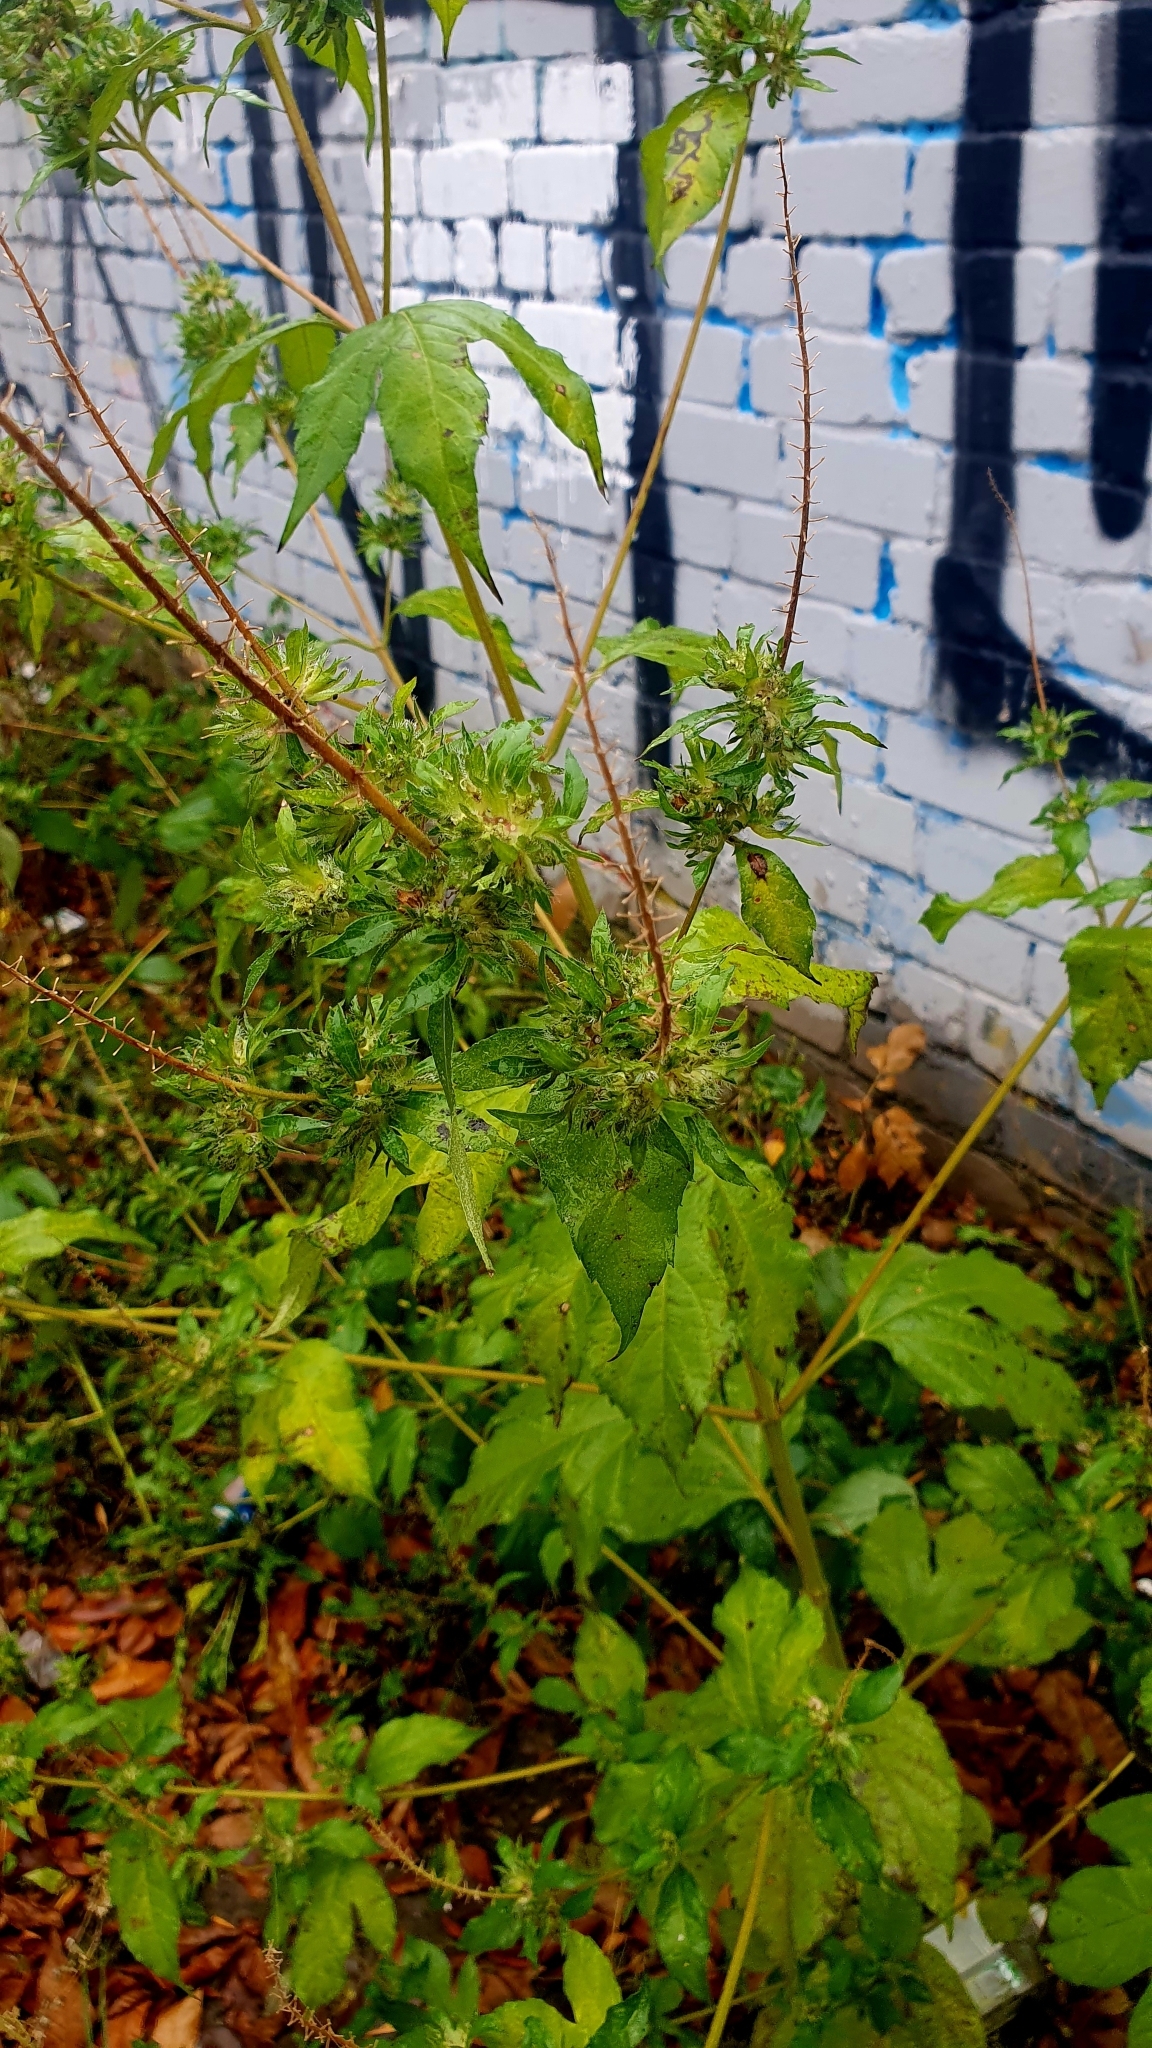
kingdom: Plantae
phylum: Tracheophyta
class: Magnoliopsida
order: Asterales
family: Asteraceae
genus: Ambrosia
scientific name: Ambrosia trifida
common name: Giant ragweed
